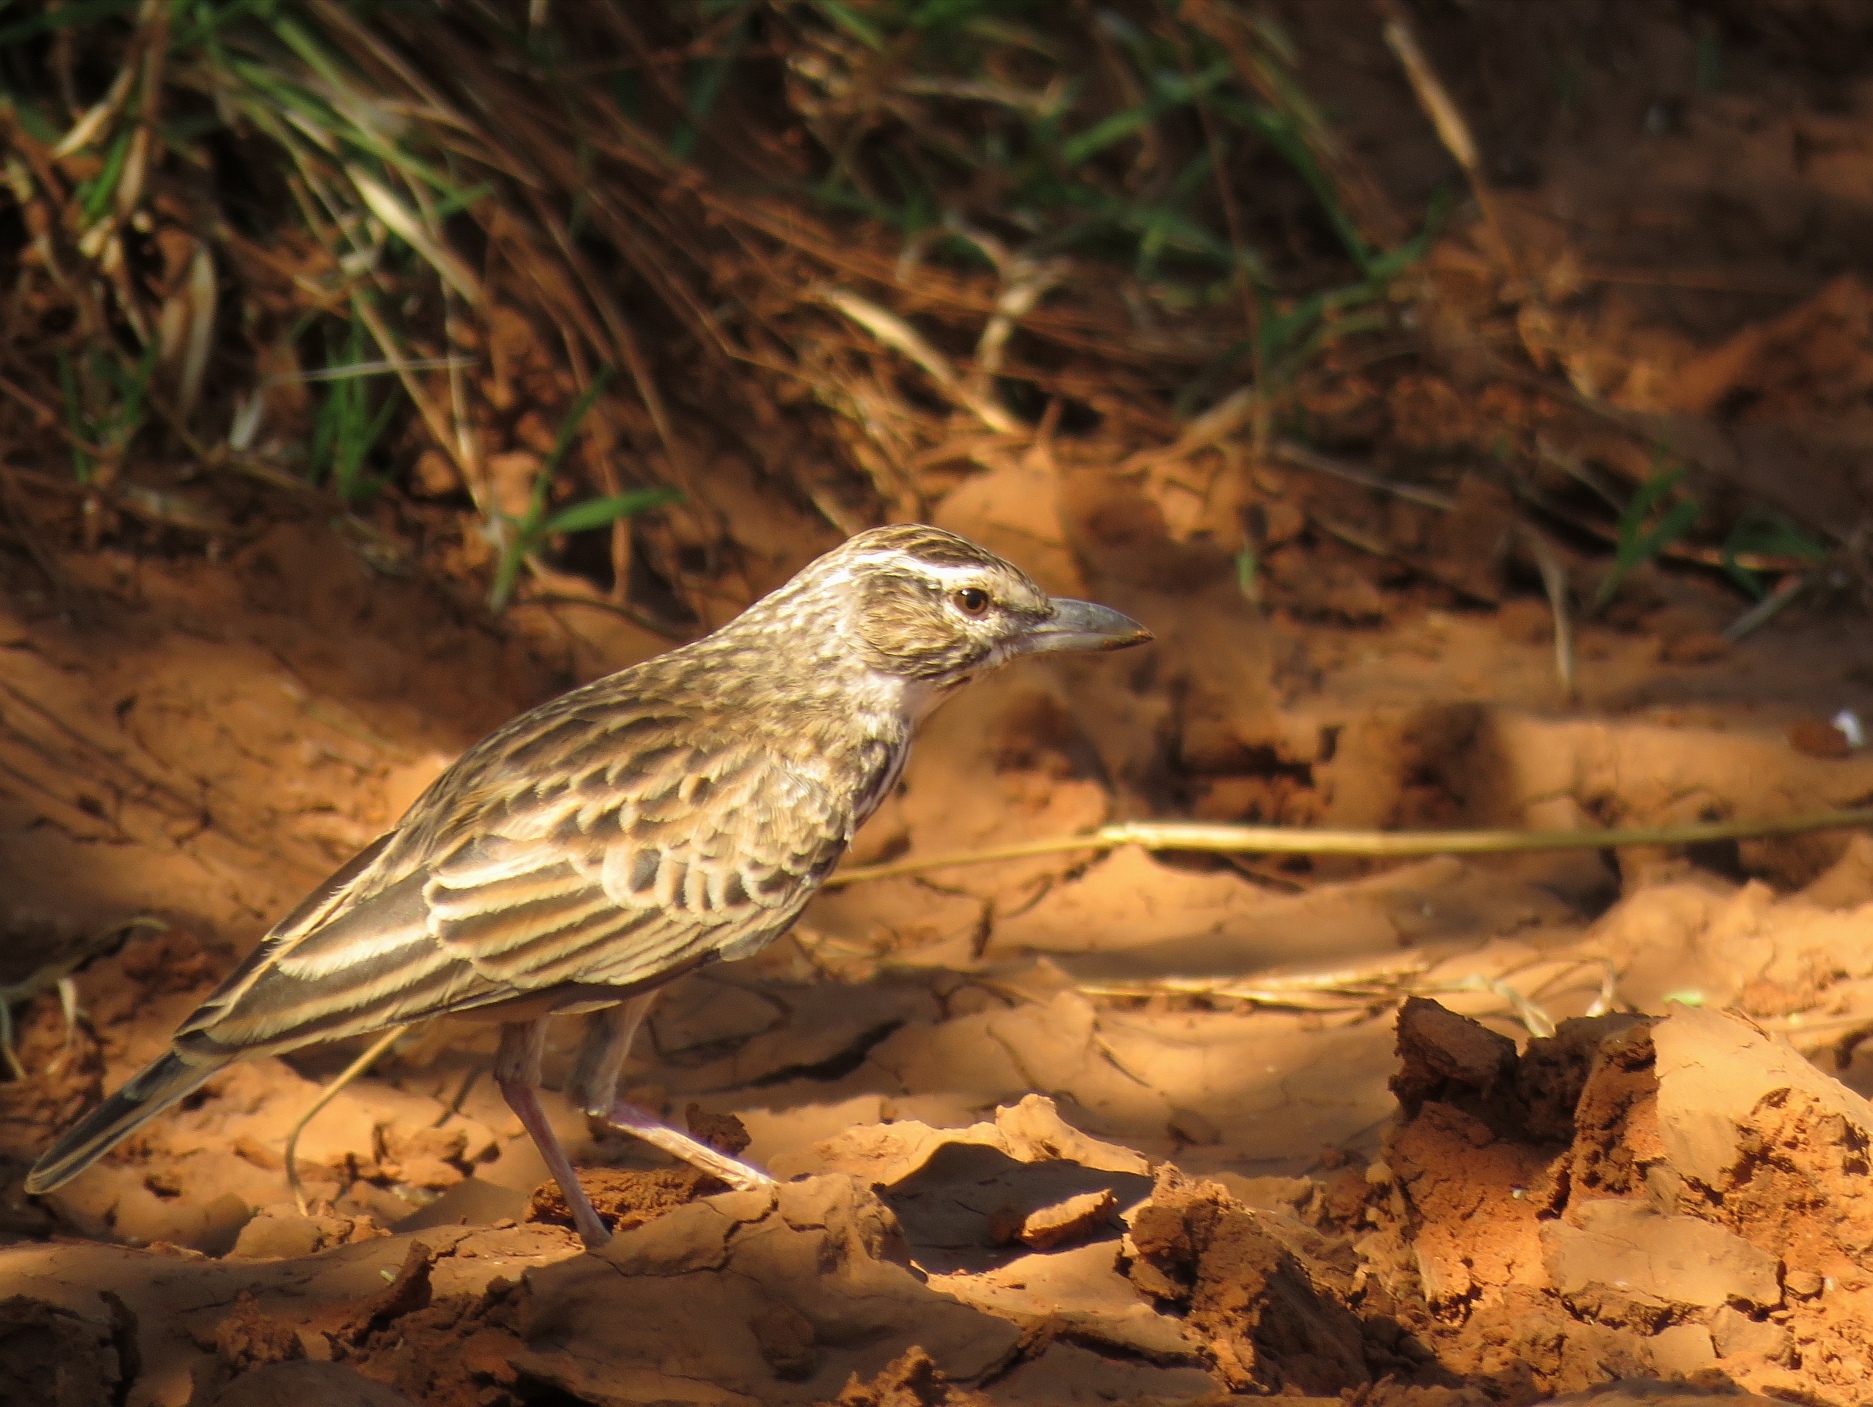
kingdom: Animalia
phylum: Chordata
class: Aves
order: Passeriformes
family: Alaudidae
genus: Calendulauda
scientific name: Calendulauda sabota
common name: Sabota lark
